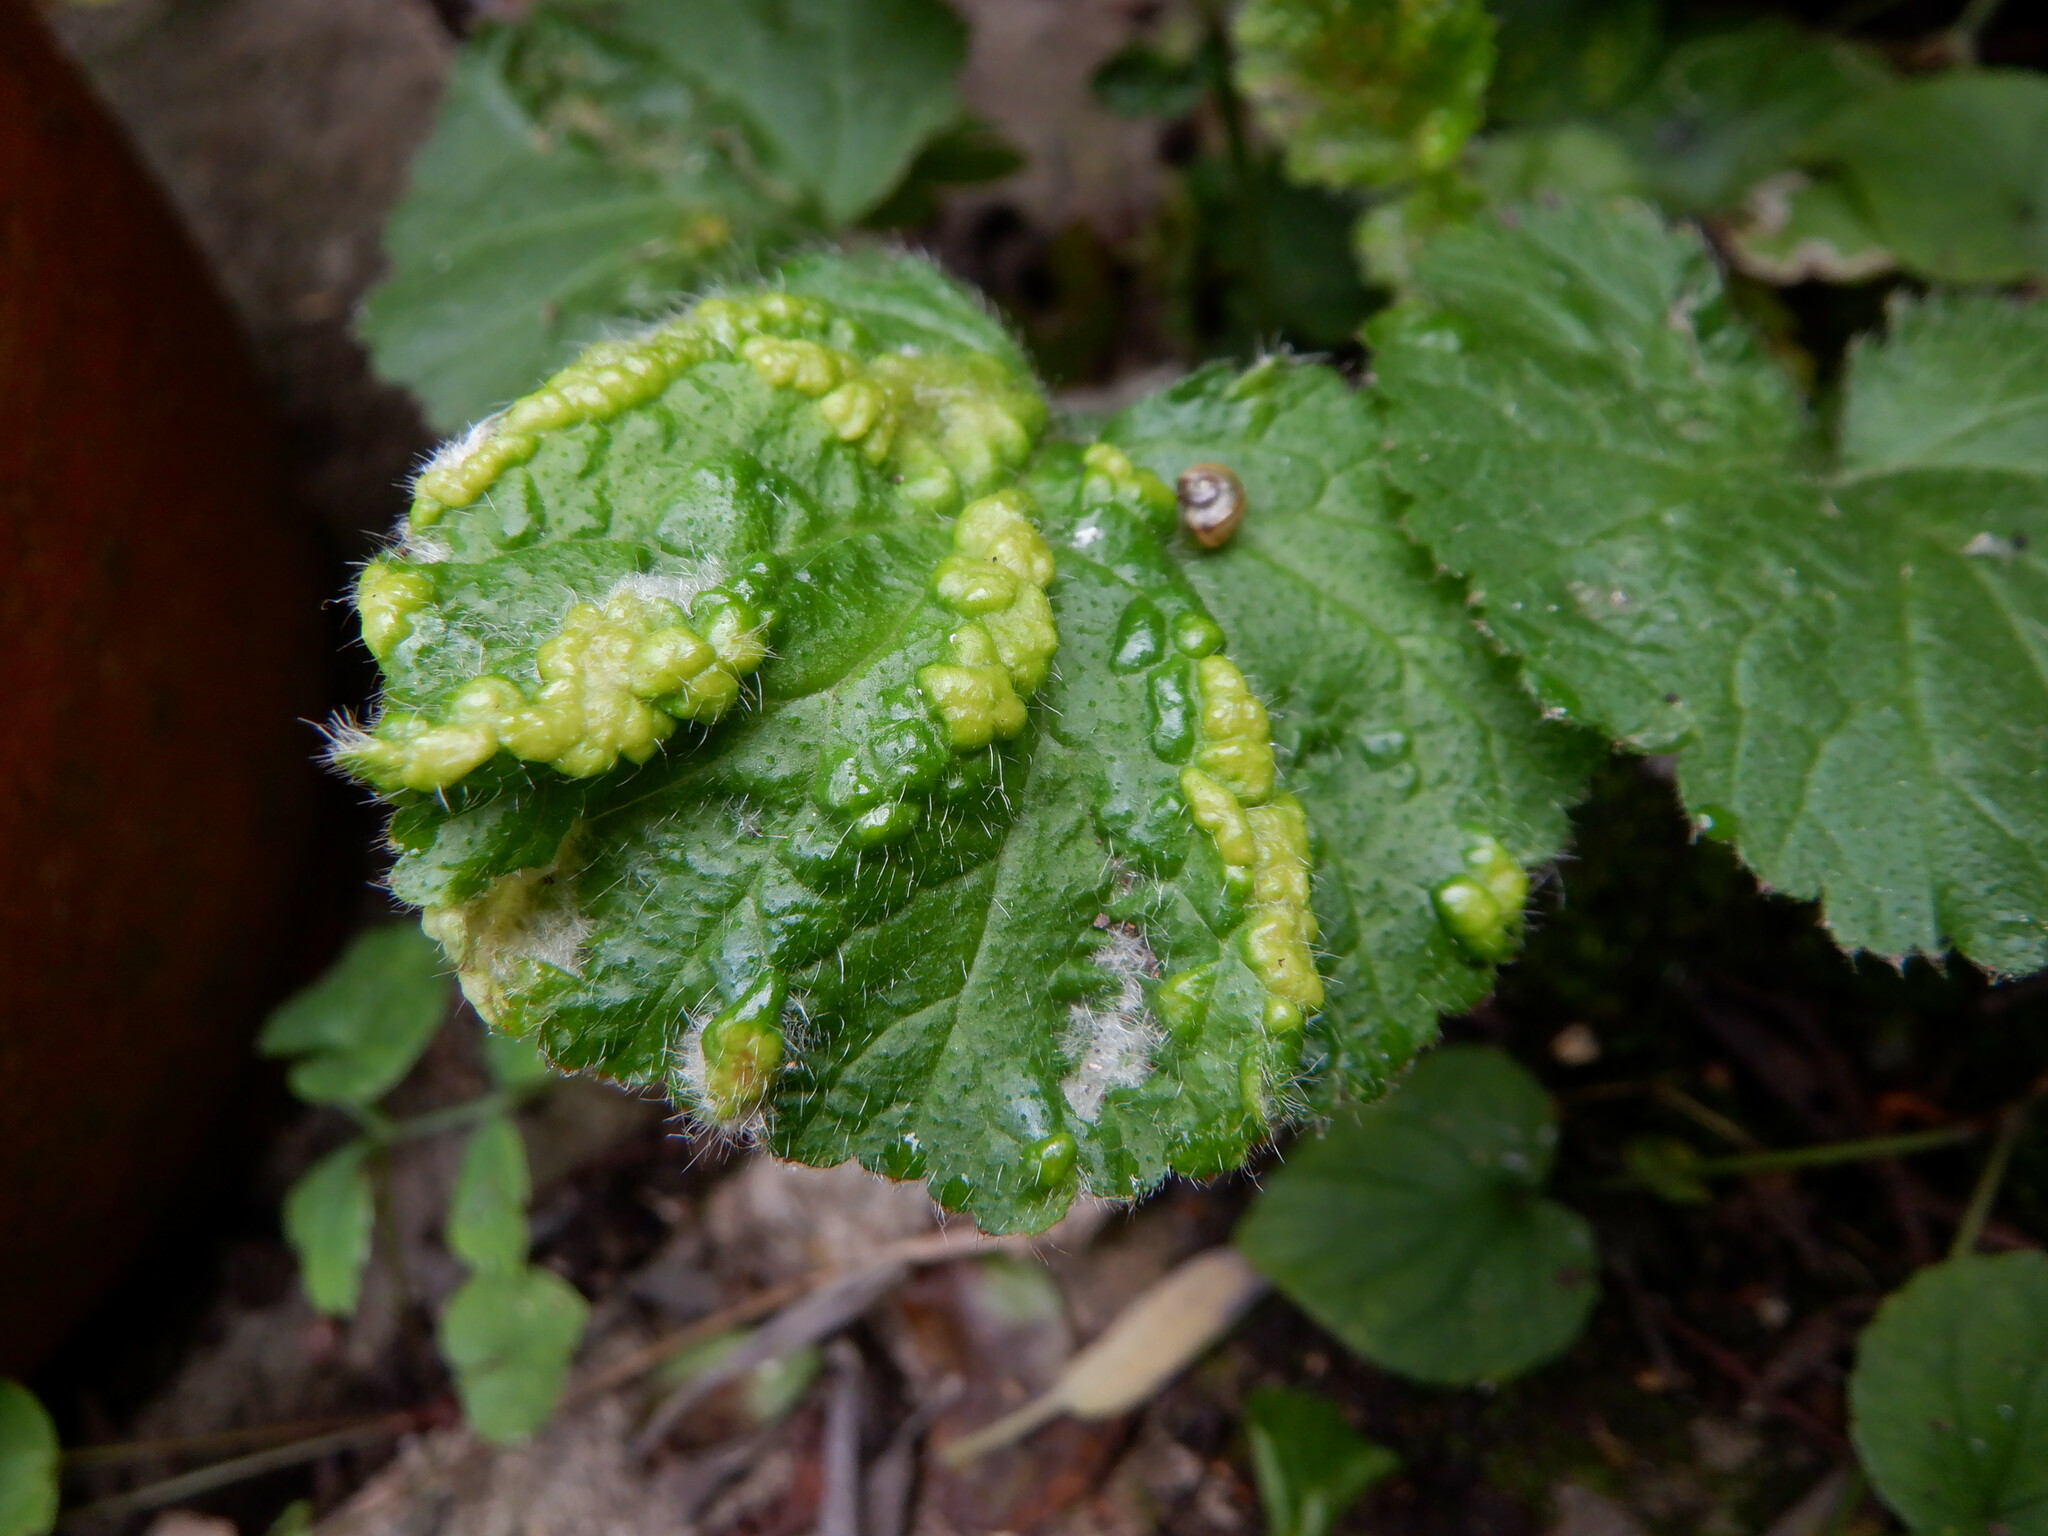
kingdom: Animalia
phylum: Arthropoda
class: Arachnida
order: Trombidiformes
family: Eriophyidae
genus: Cecidophyes
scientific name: Cecidophyes nudus
